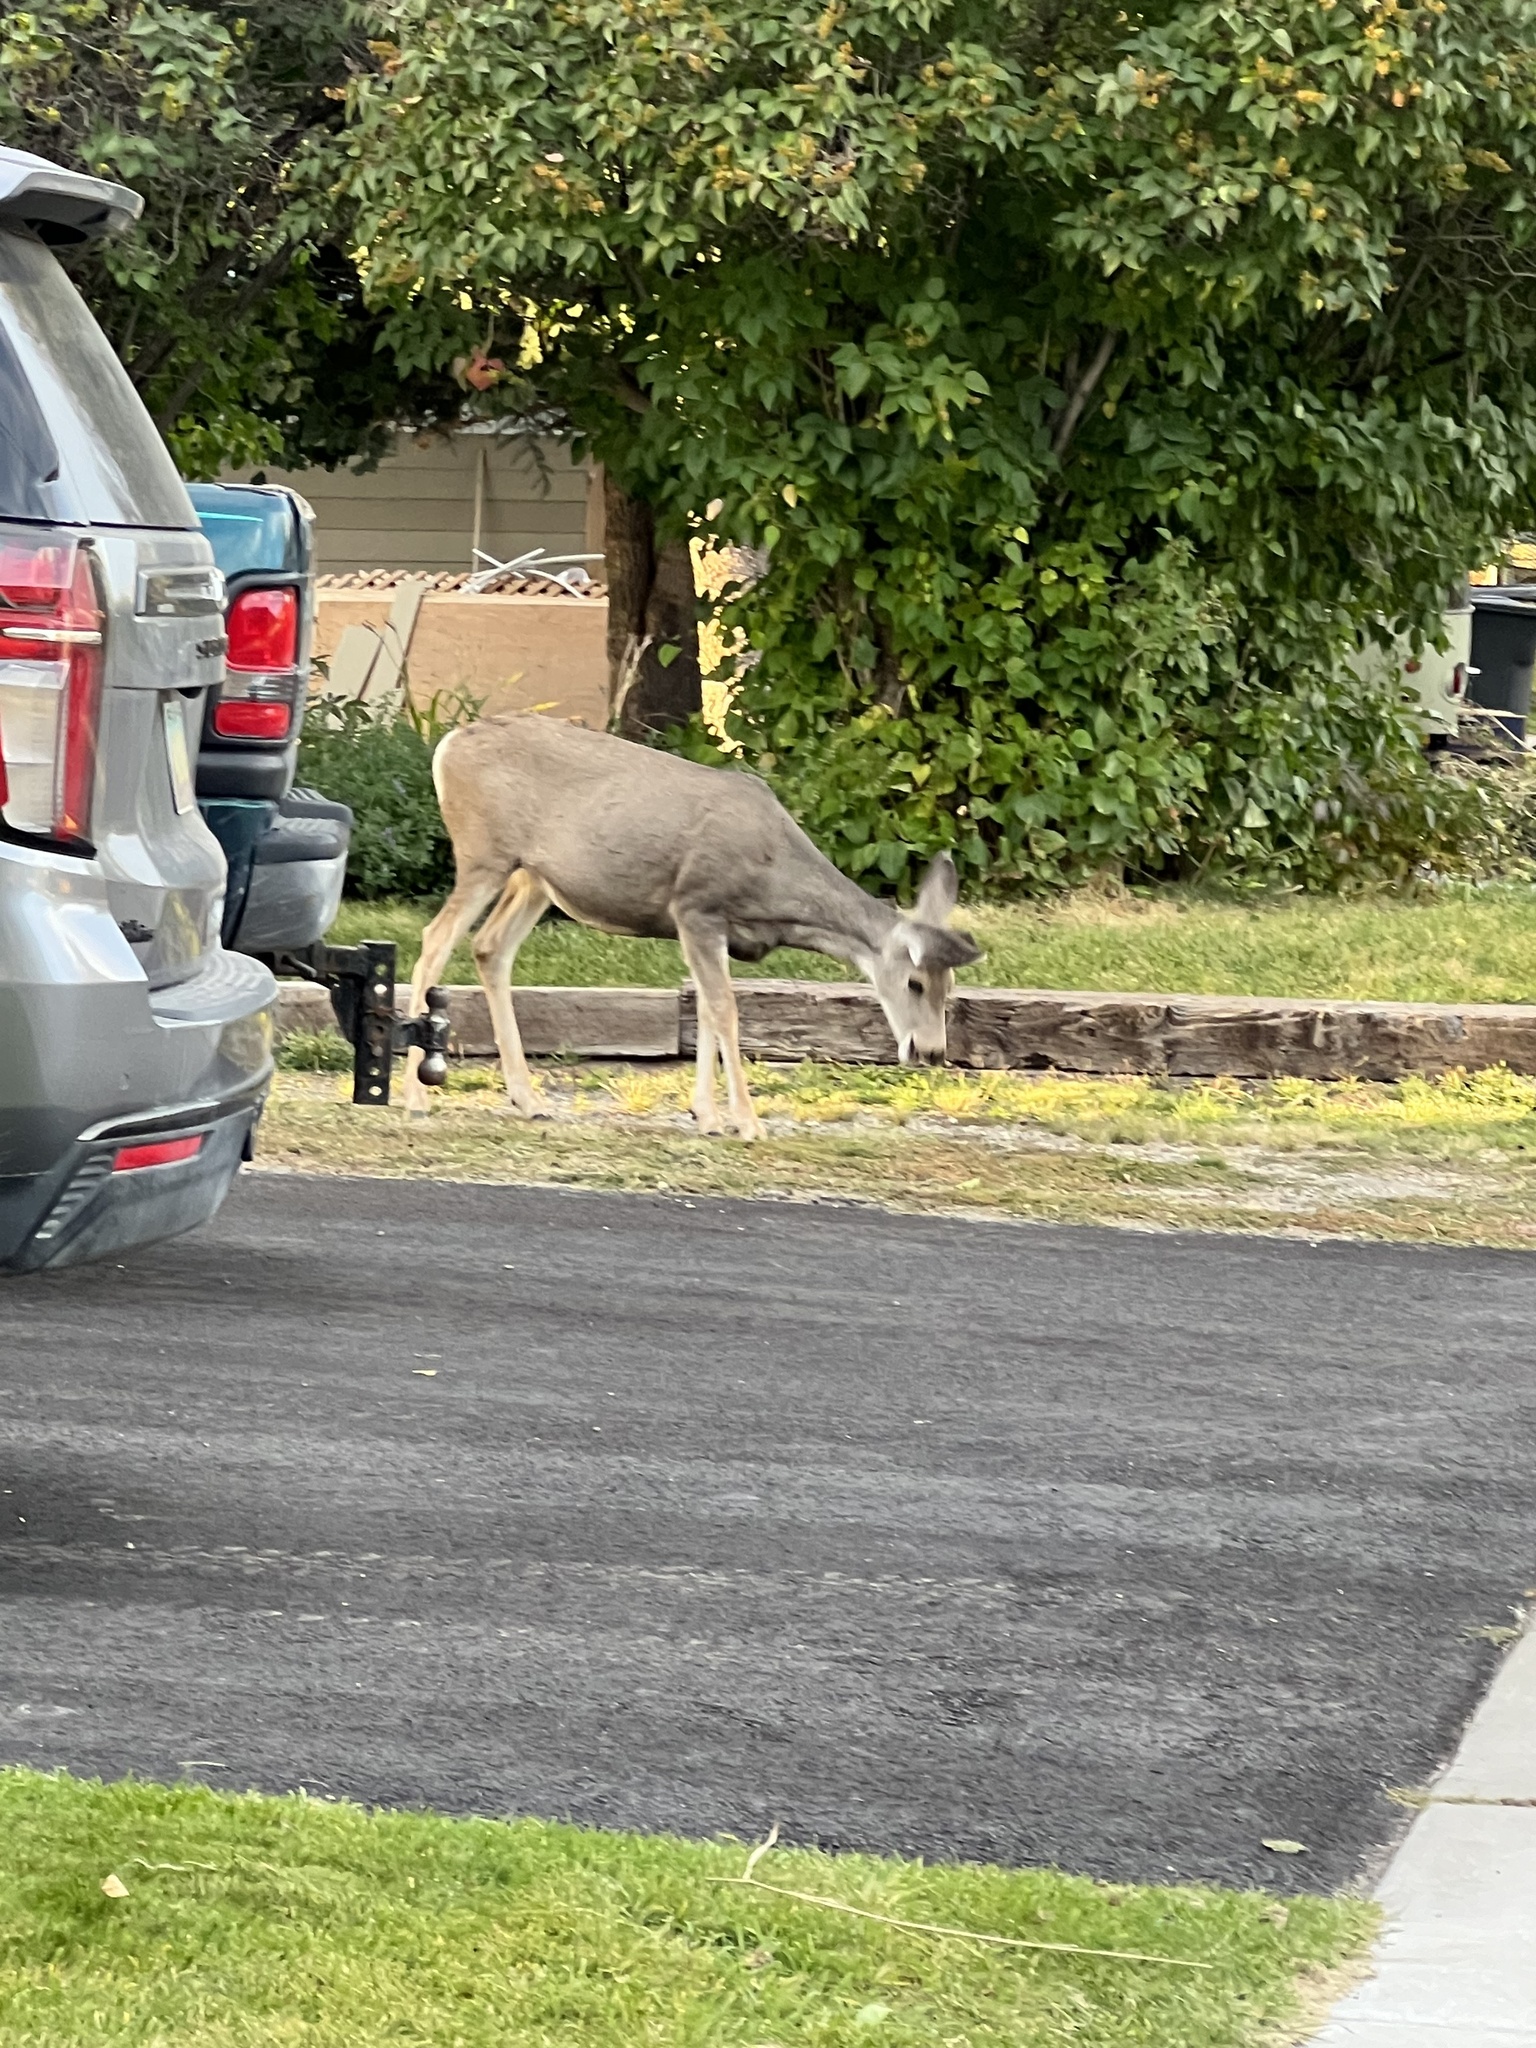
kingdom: Animalia
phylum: Chordata
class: Mammalia
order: Artiodactyla
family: Cervidae
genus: Odocoileus
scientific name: Odocoileus hemionus
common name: Mule deer
